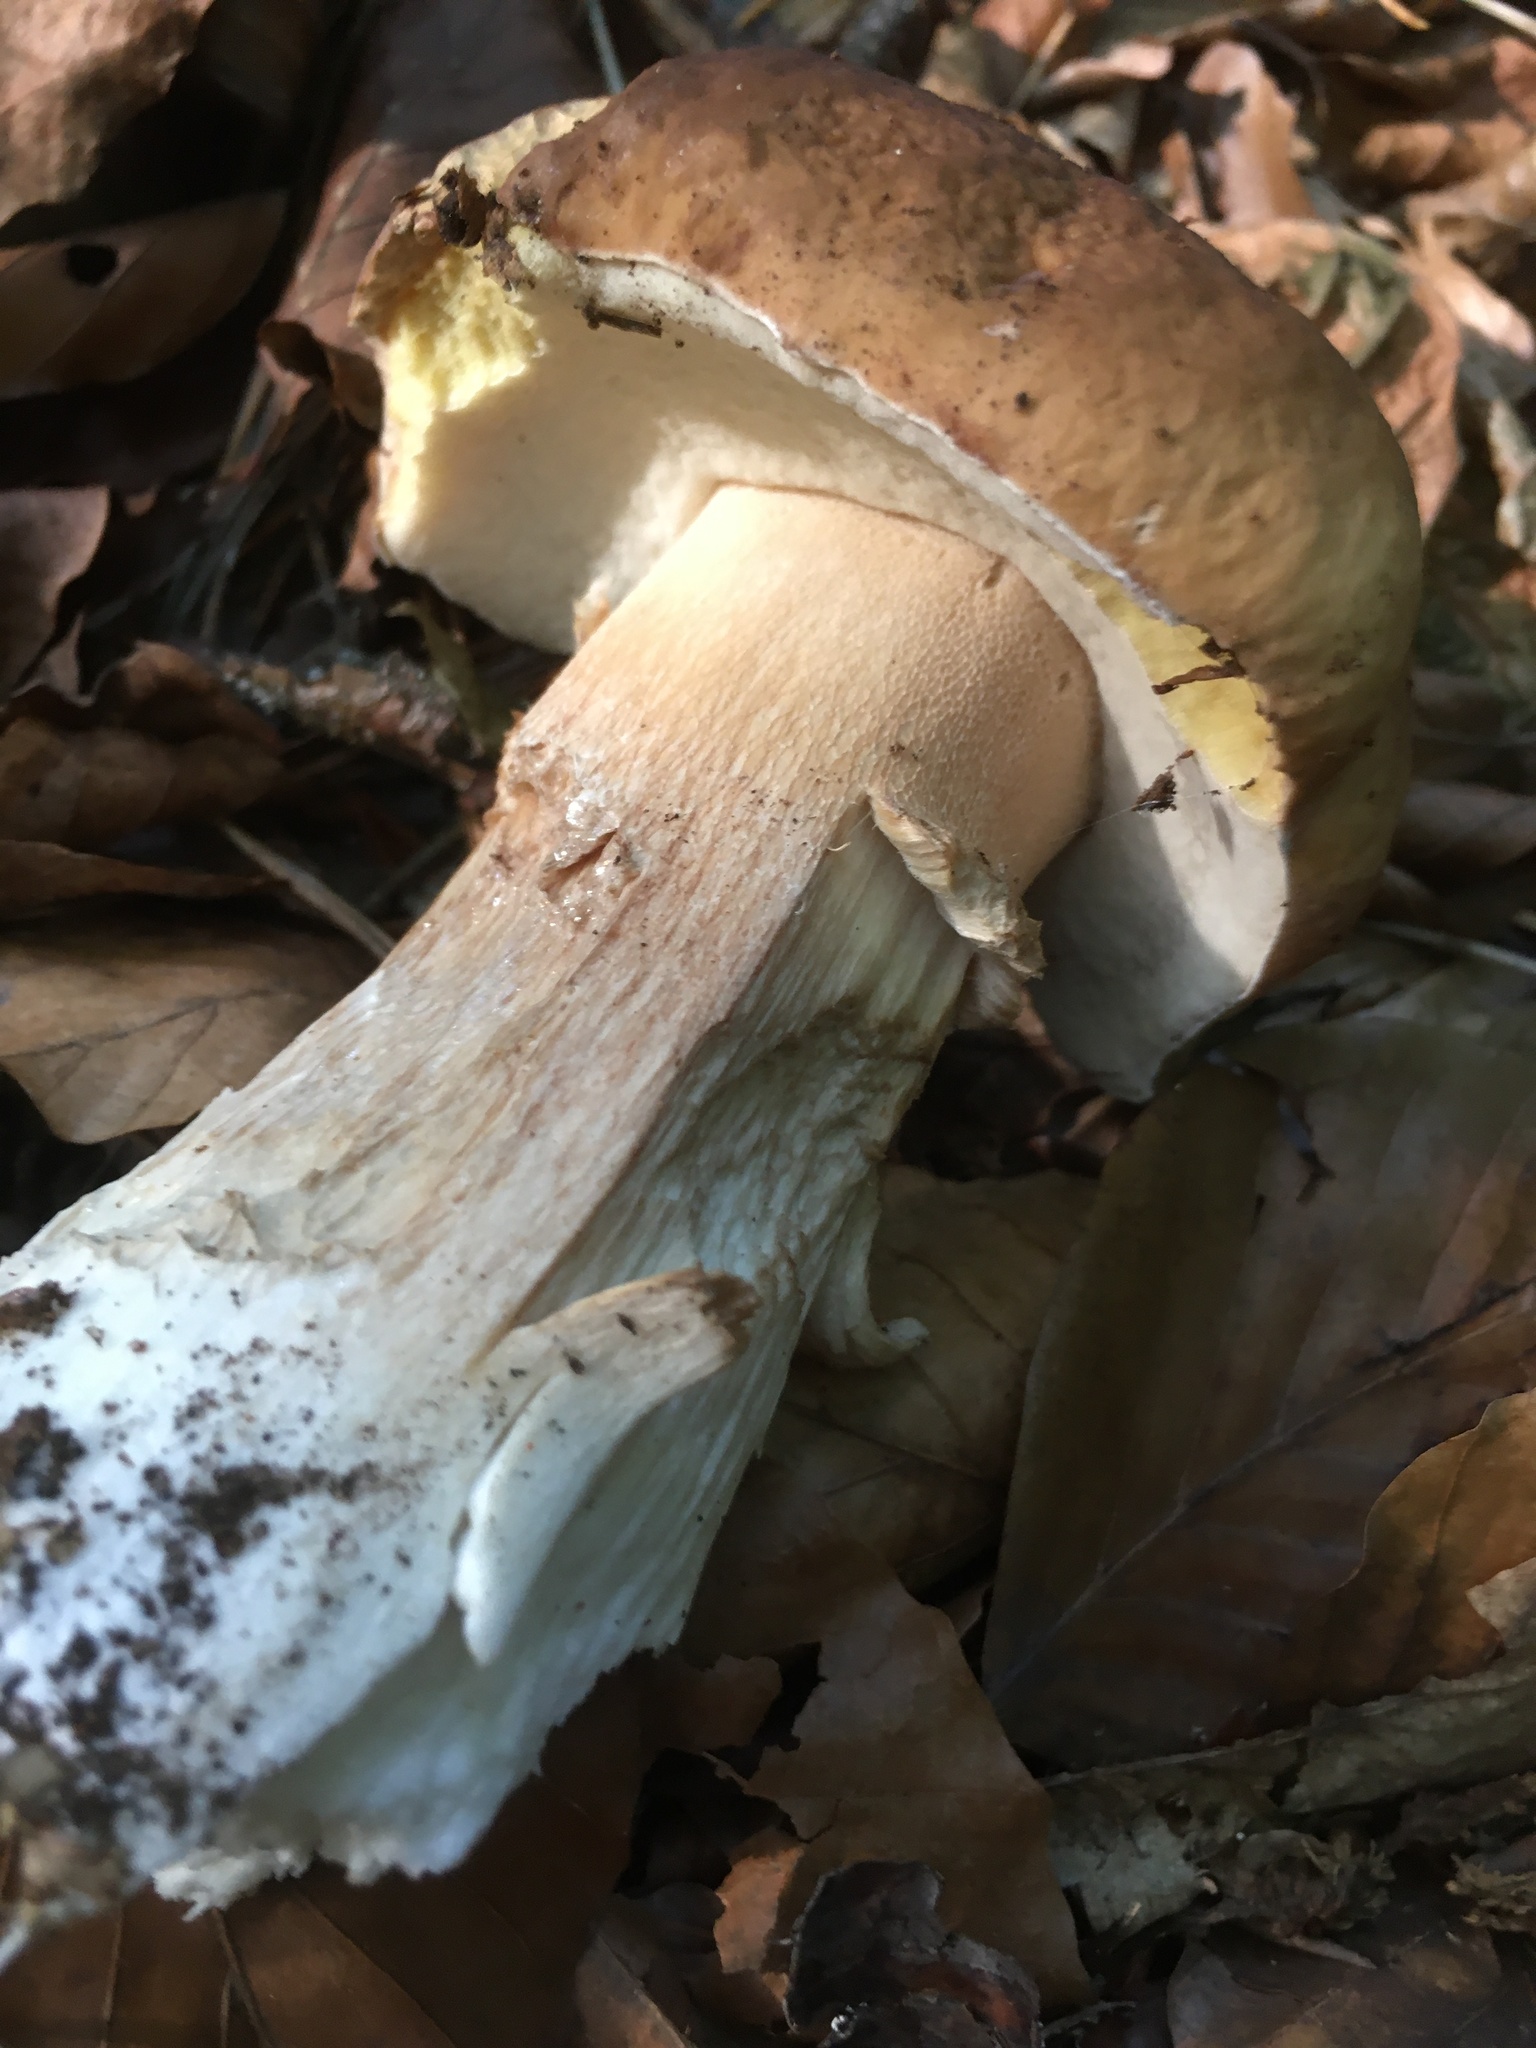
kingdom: Fungi
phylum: Basidiomycota
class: Agaricomycetes
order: Boletales
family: Boletaceae
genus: Boletus
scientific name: Boletus edulis
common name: Cep
